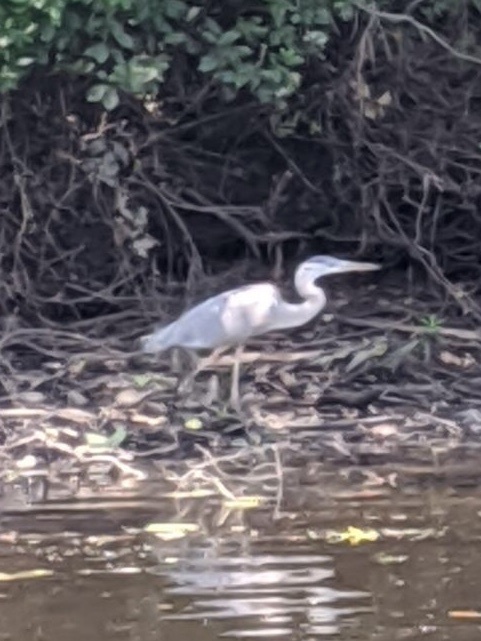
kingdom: Animalia
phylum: Chordata
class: Aves
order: Pelecaniformes
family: Ardeidae
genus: Ardea
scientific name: Ardea herodias
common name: Great blue heron
